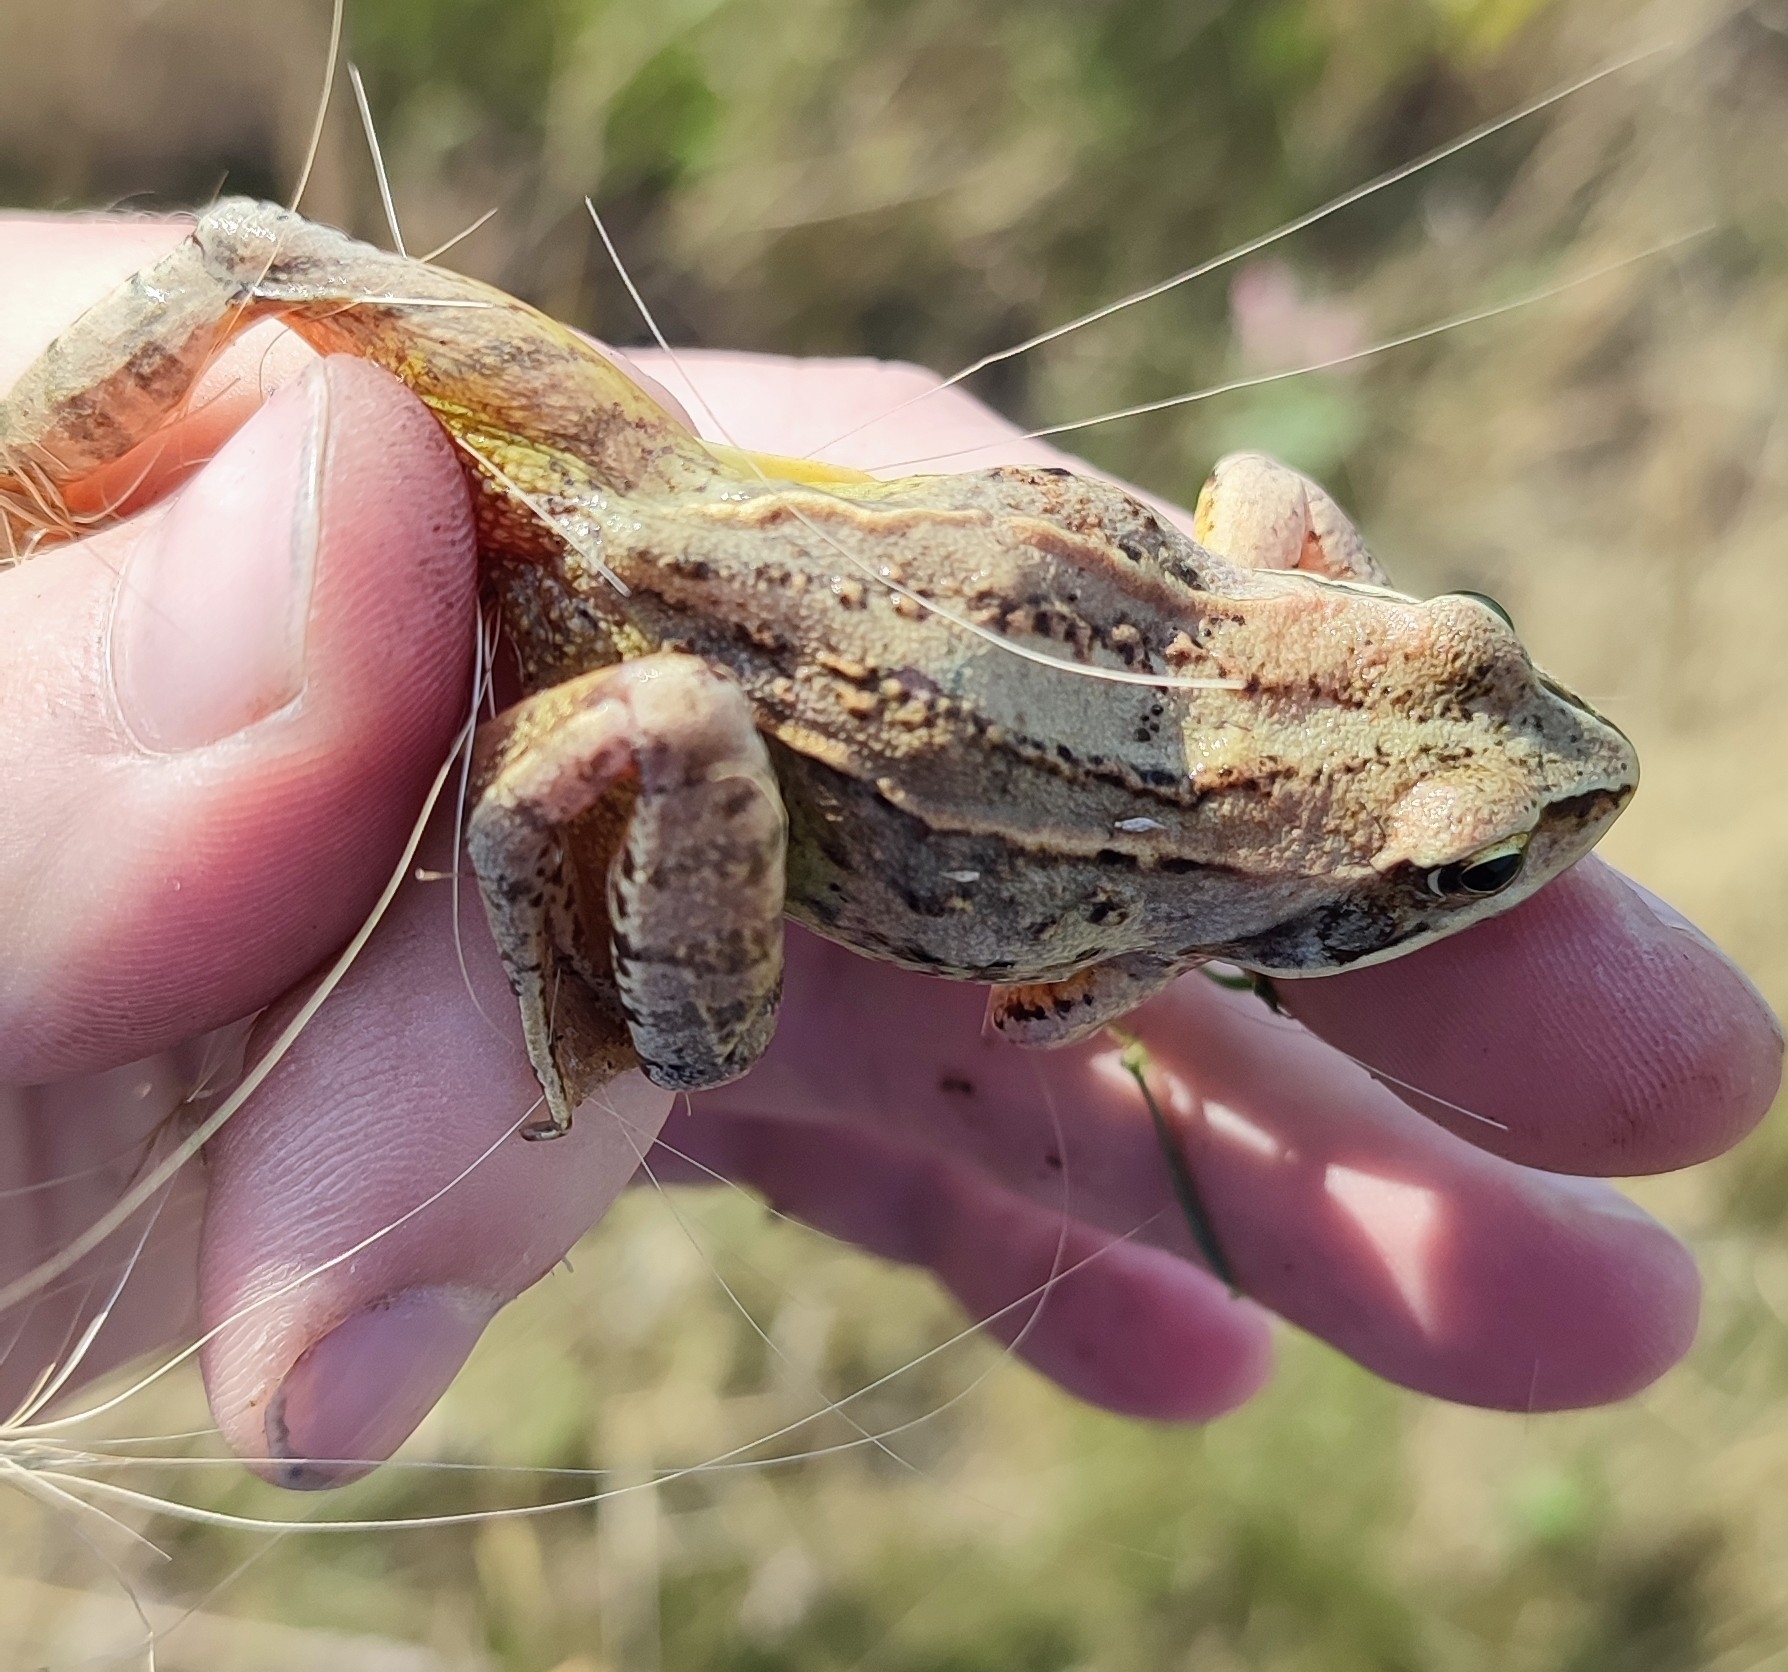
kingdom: Animalia
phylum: Chordata
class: Amphibia
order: Anura
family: Ranidae
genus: Rana
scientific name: Rana arvalis
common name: Moor frog
